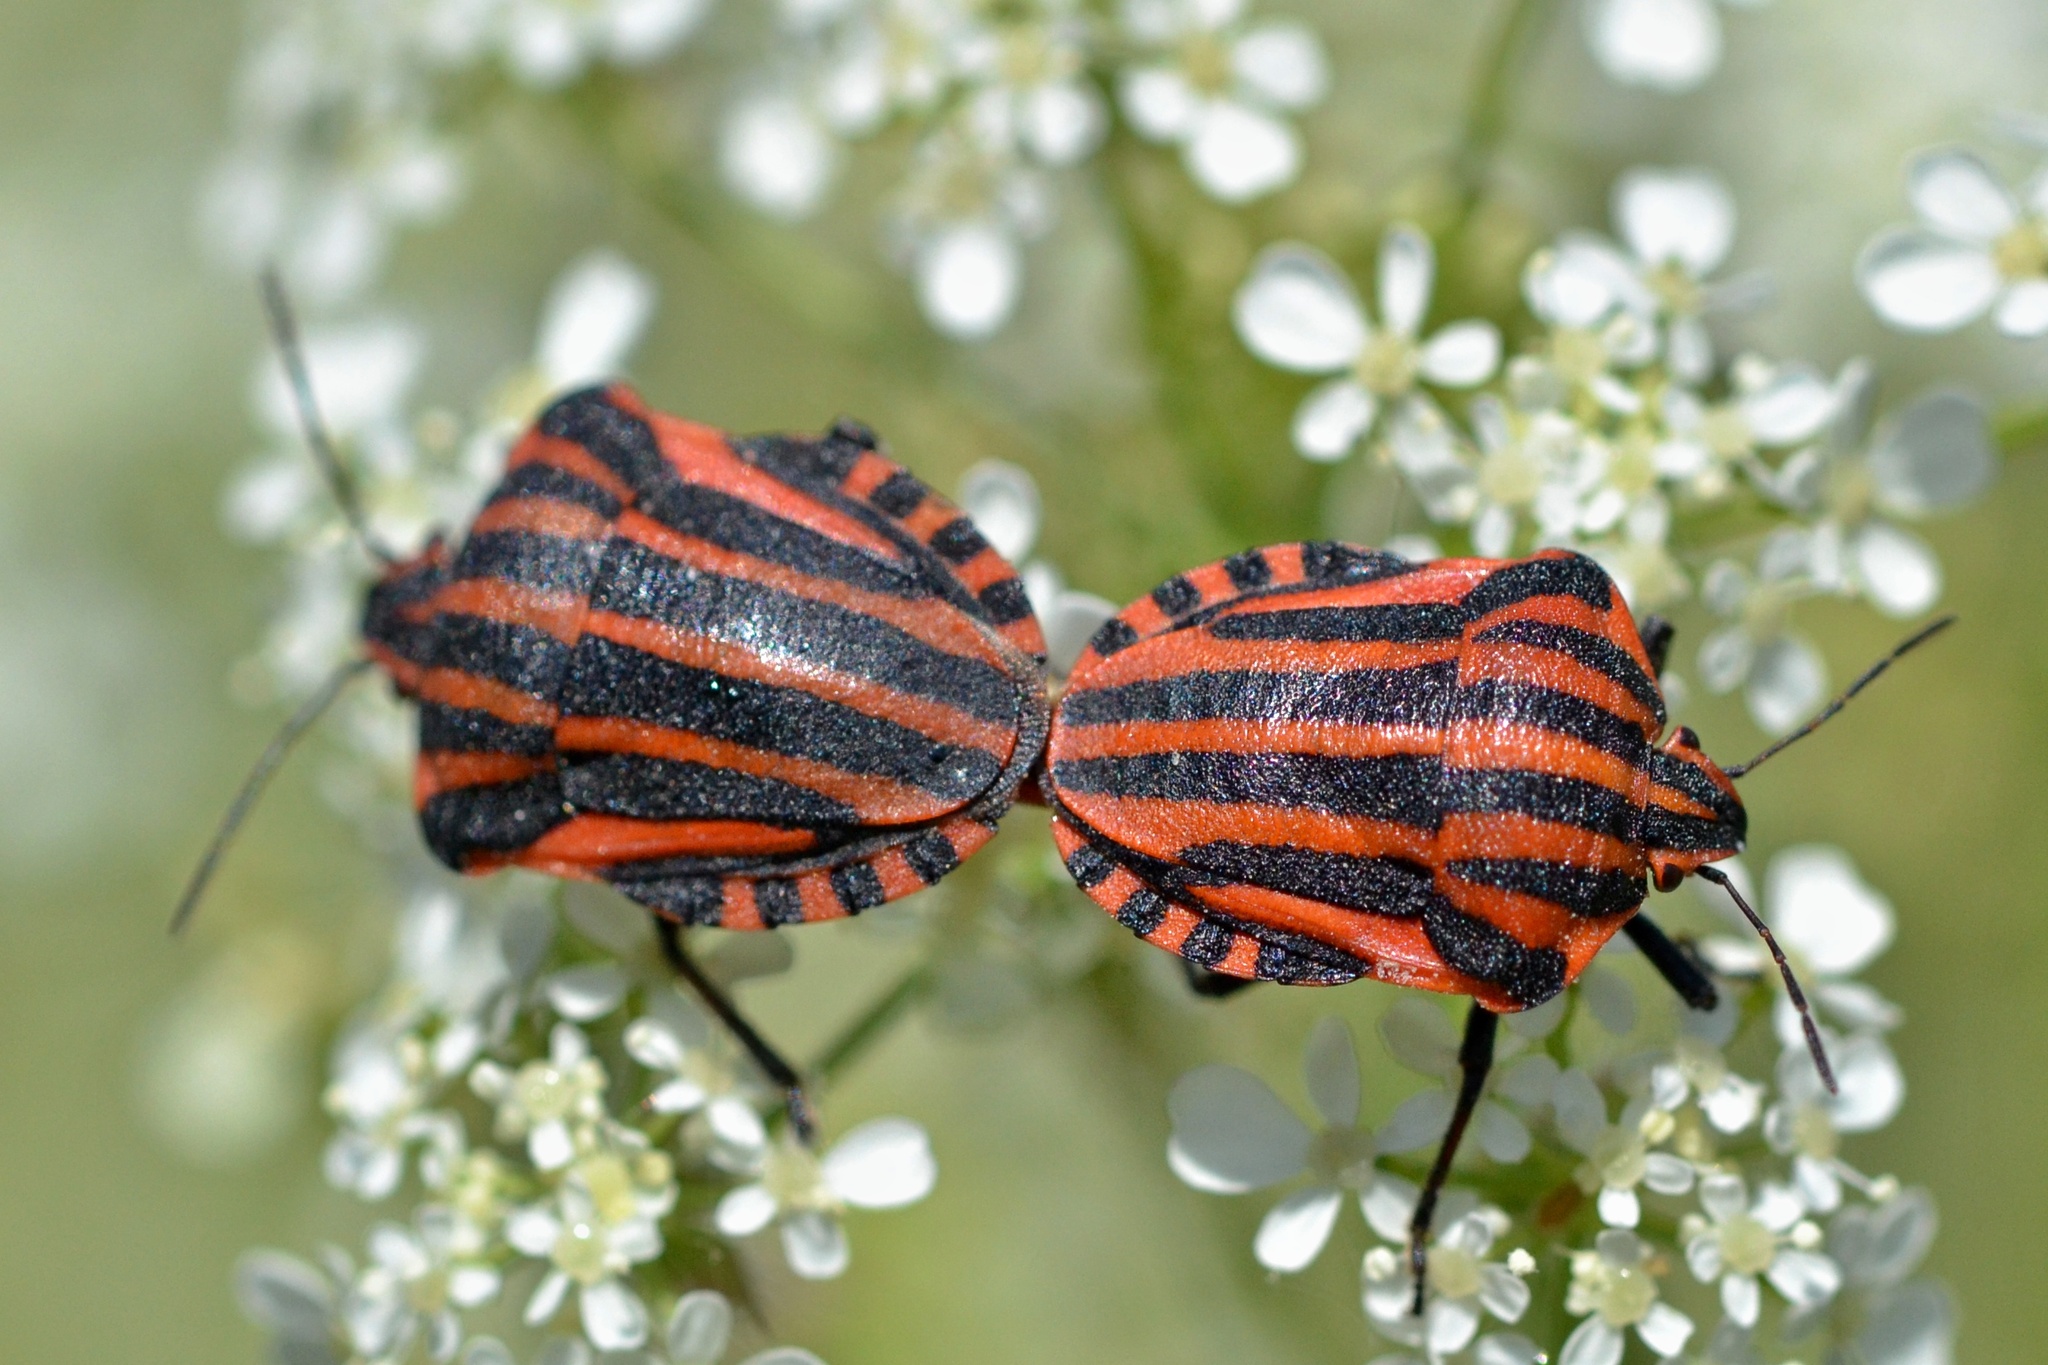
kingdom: Animalia
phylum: Arthropoda
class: Insecta
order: Hemiptera
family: Pentatomidae
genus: Graphosoma
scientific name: Graphosoma italicum
